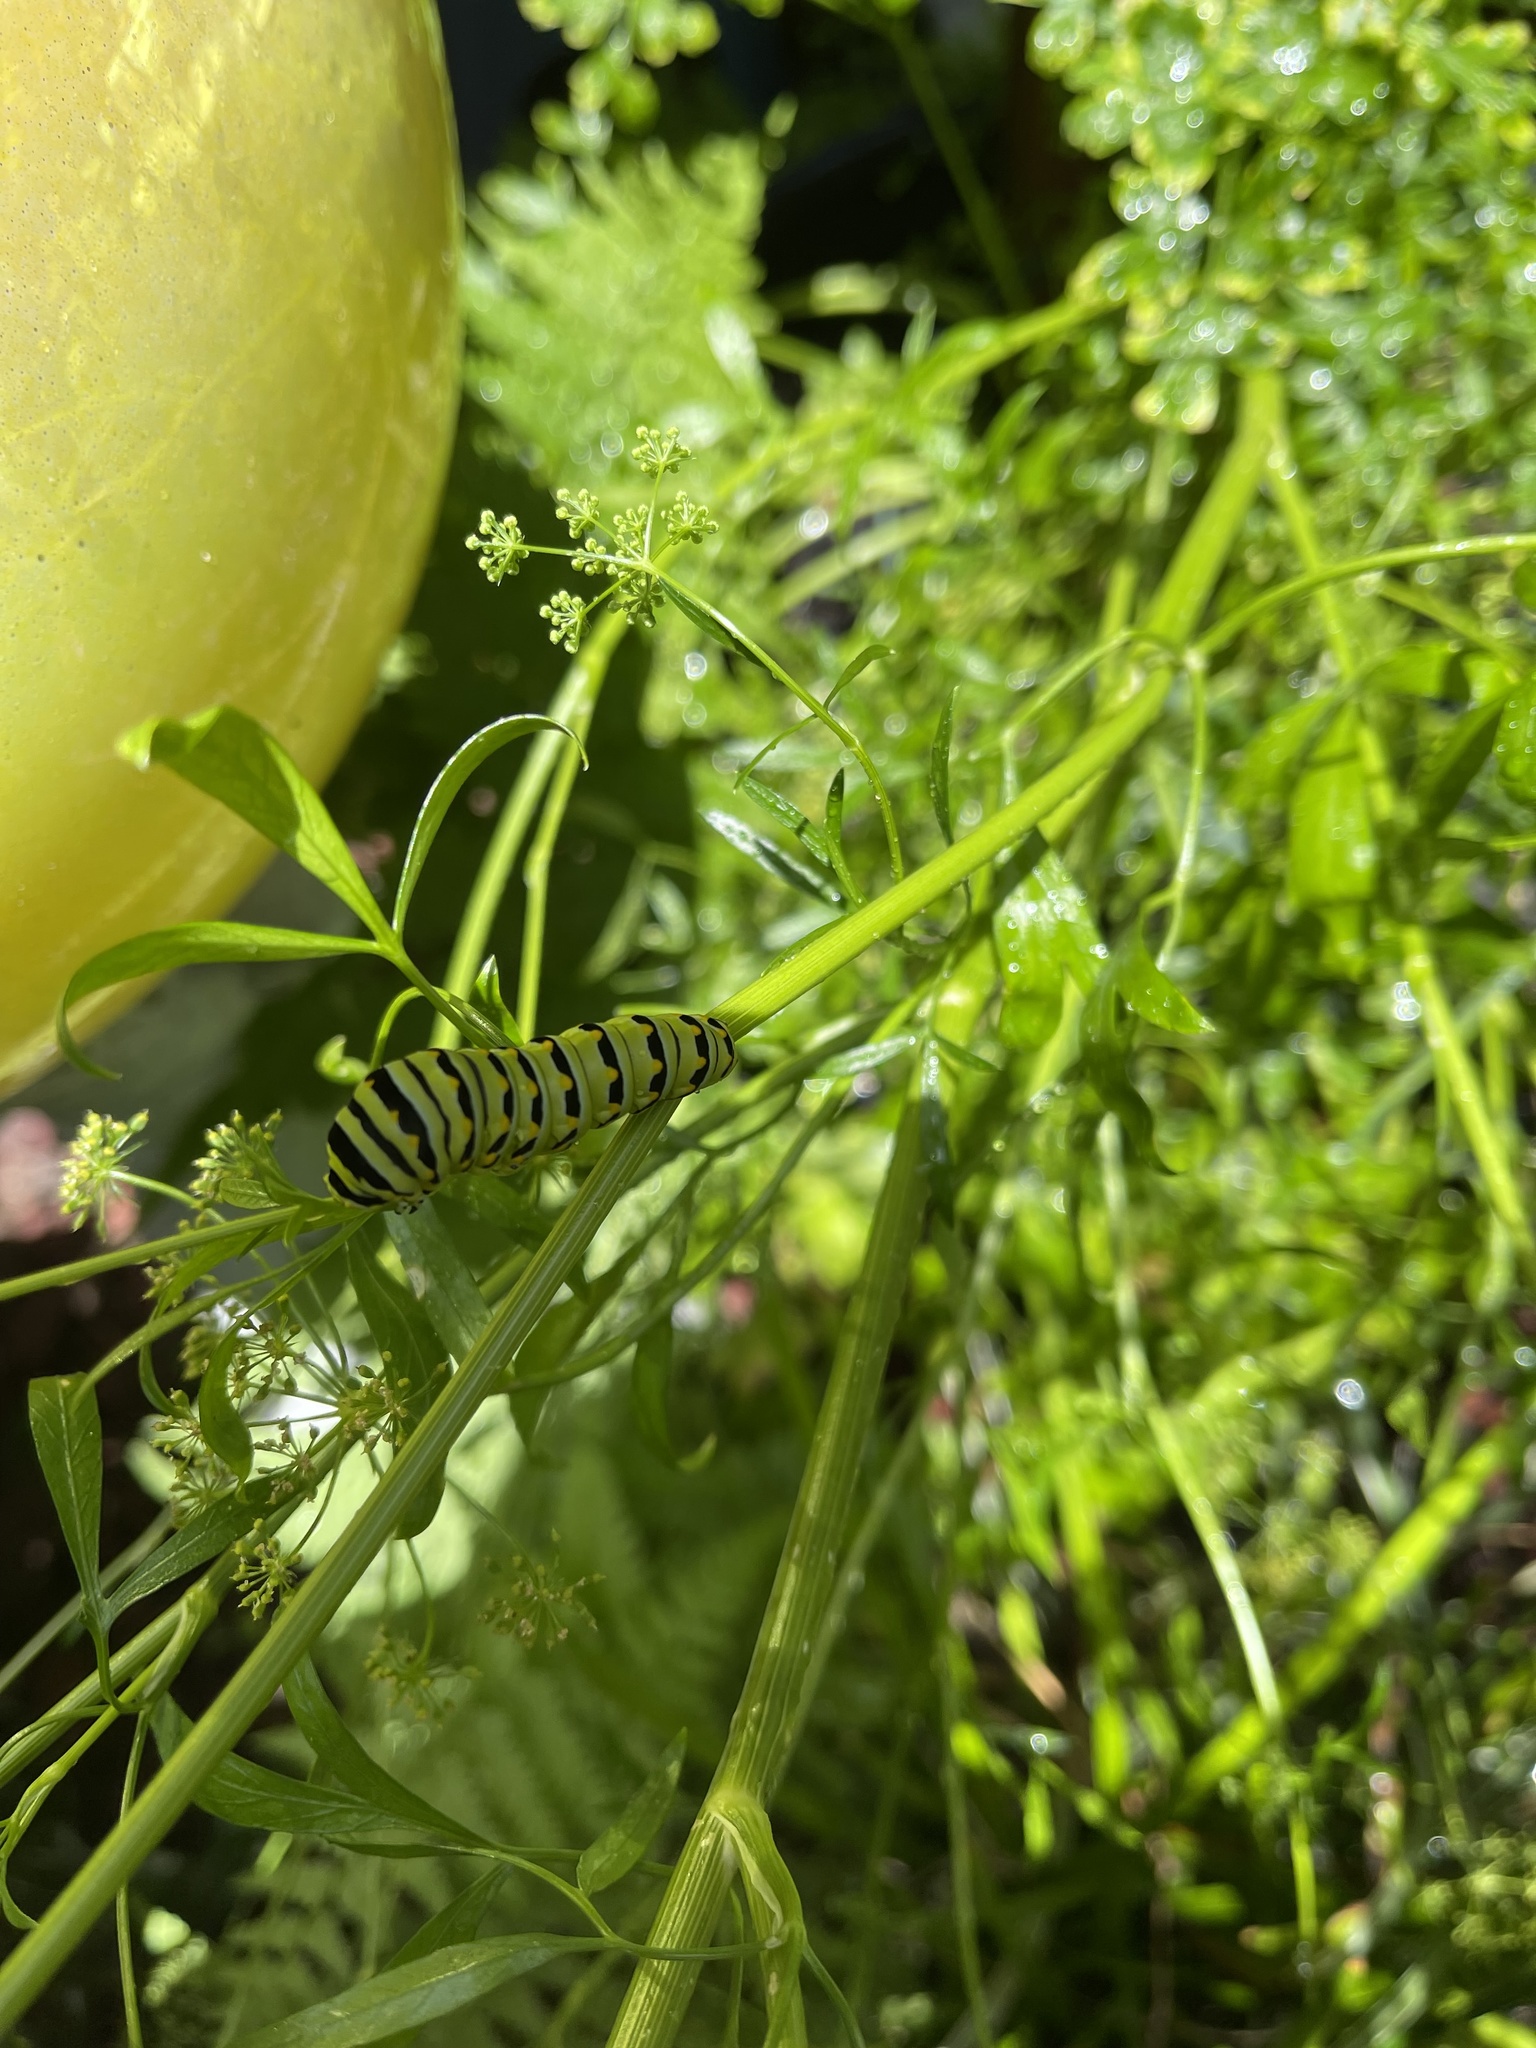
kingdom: Animalia
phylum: Arthropoda
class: Insecta
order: Lepidoptera
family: Papilionidae
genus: Papilio
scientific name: Papilio polyxenes
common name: Black swallowtail
